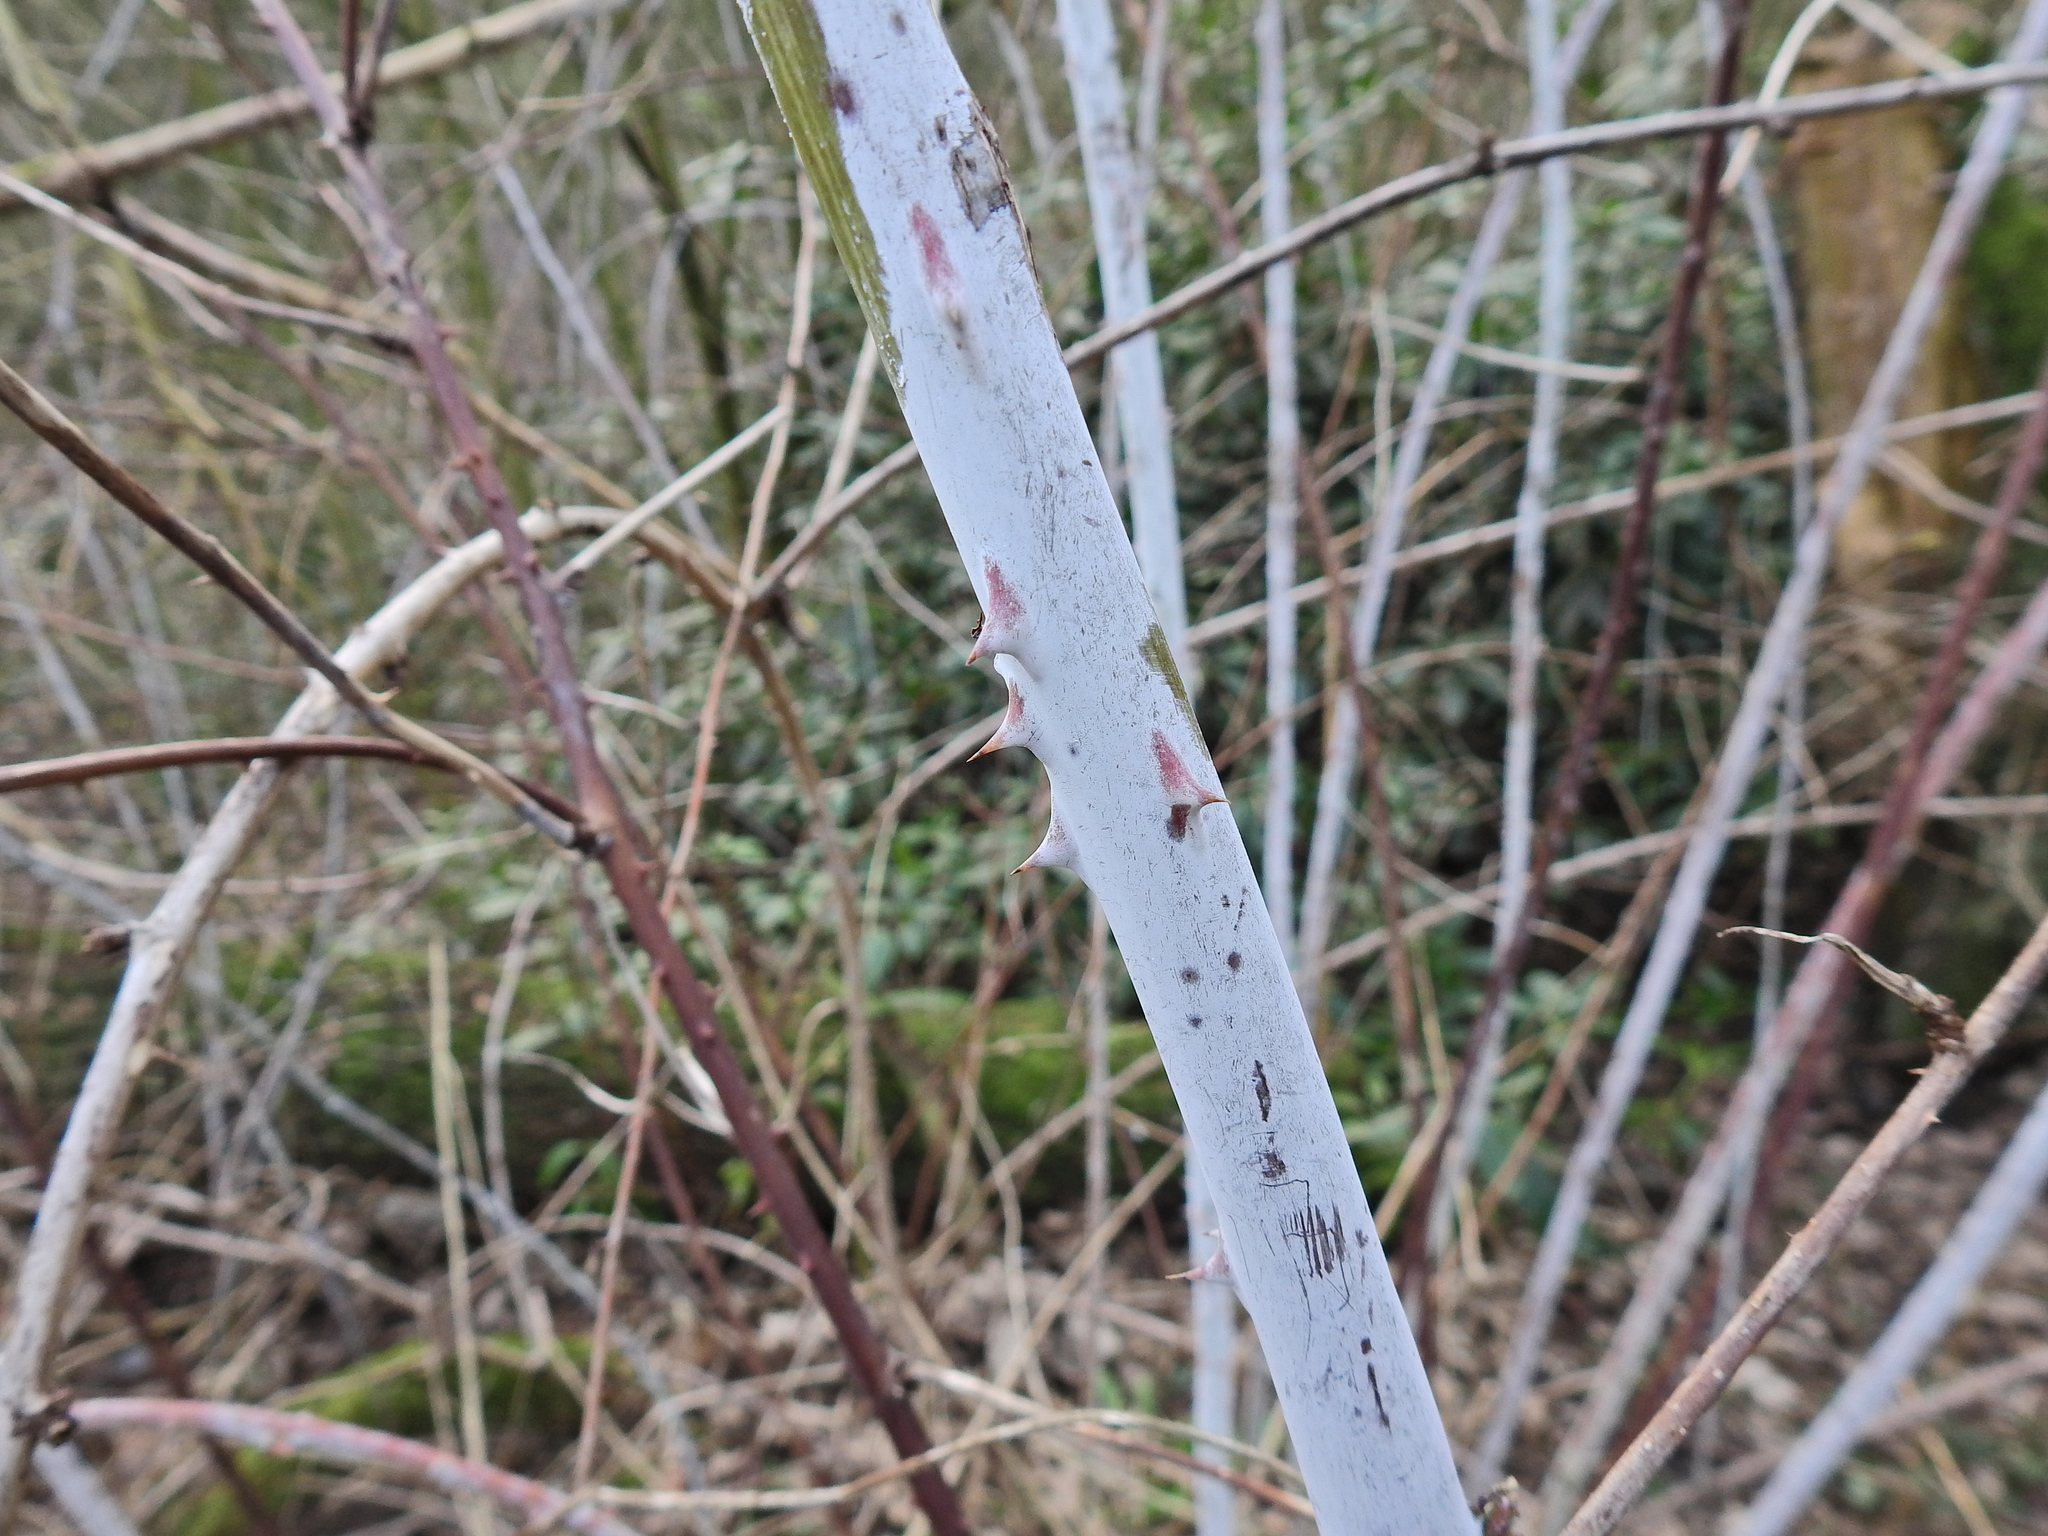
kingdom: Plantae
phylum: Tracheophyta
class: Magnoliopsida
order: Rosales
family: Rosaceae
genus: Rubus
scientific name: Rubus cockburnianus
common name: White-stemmed bramble
